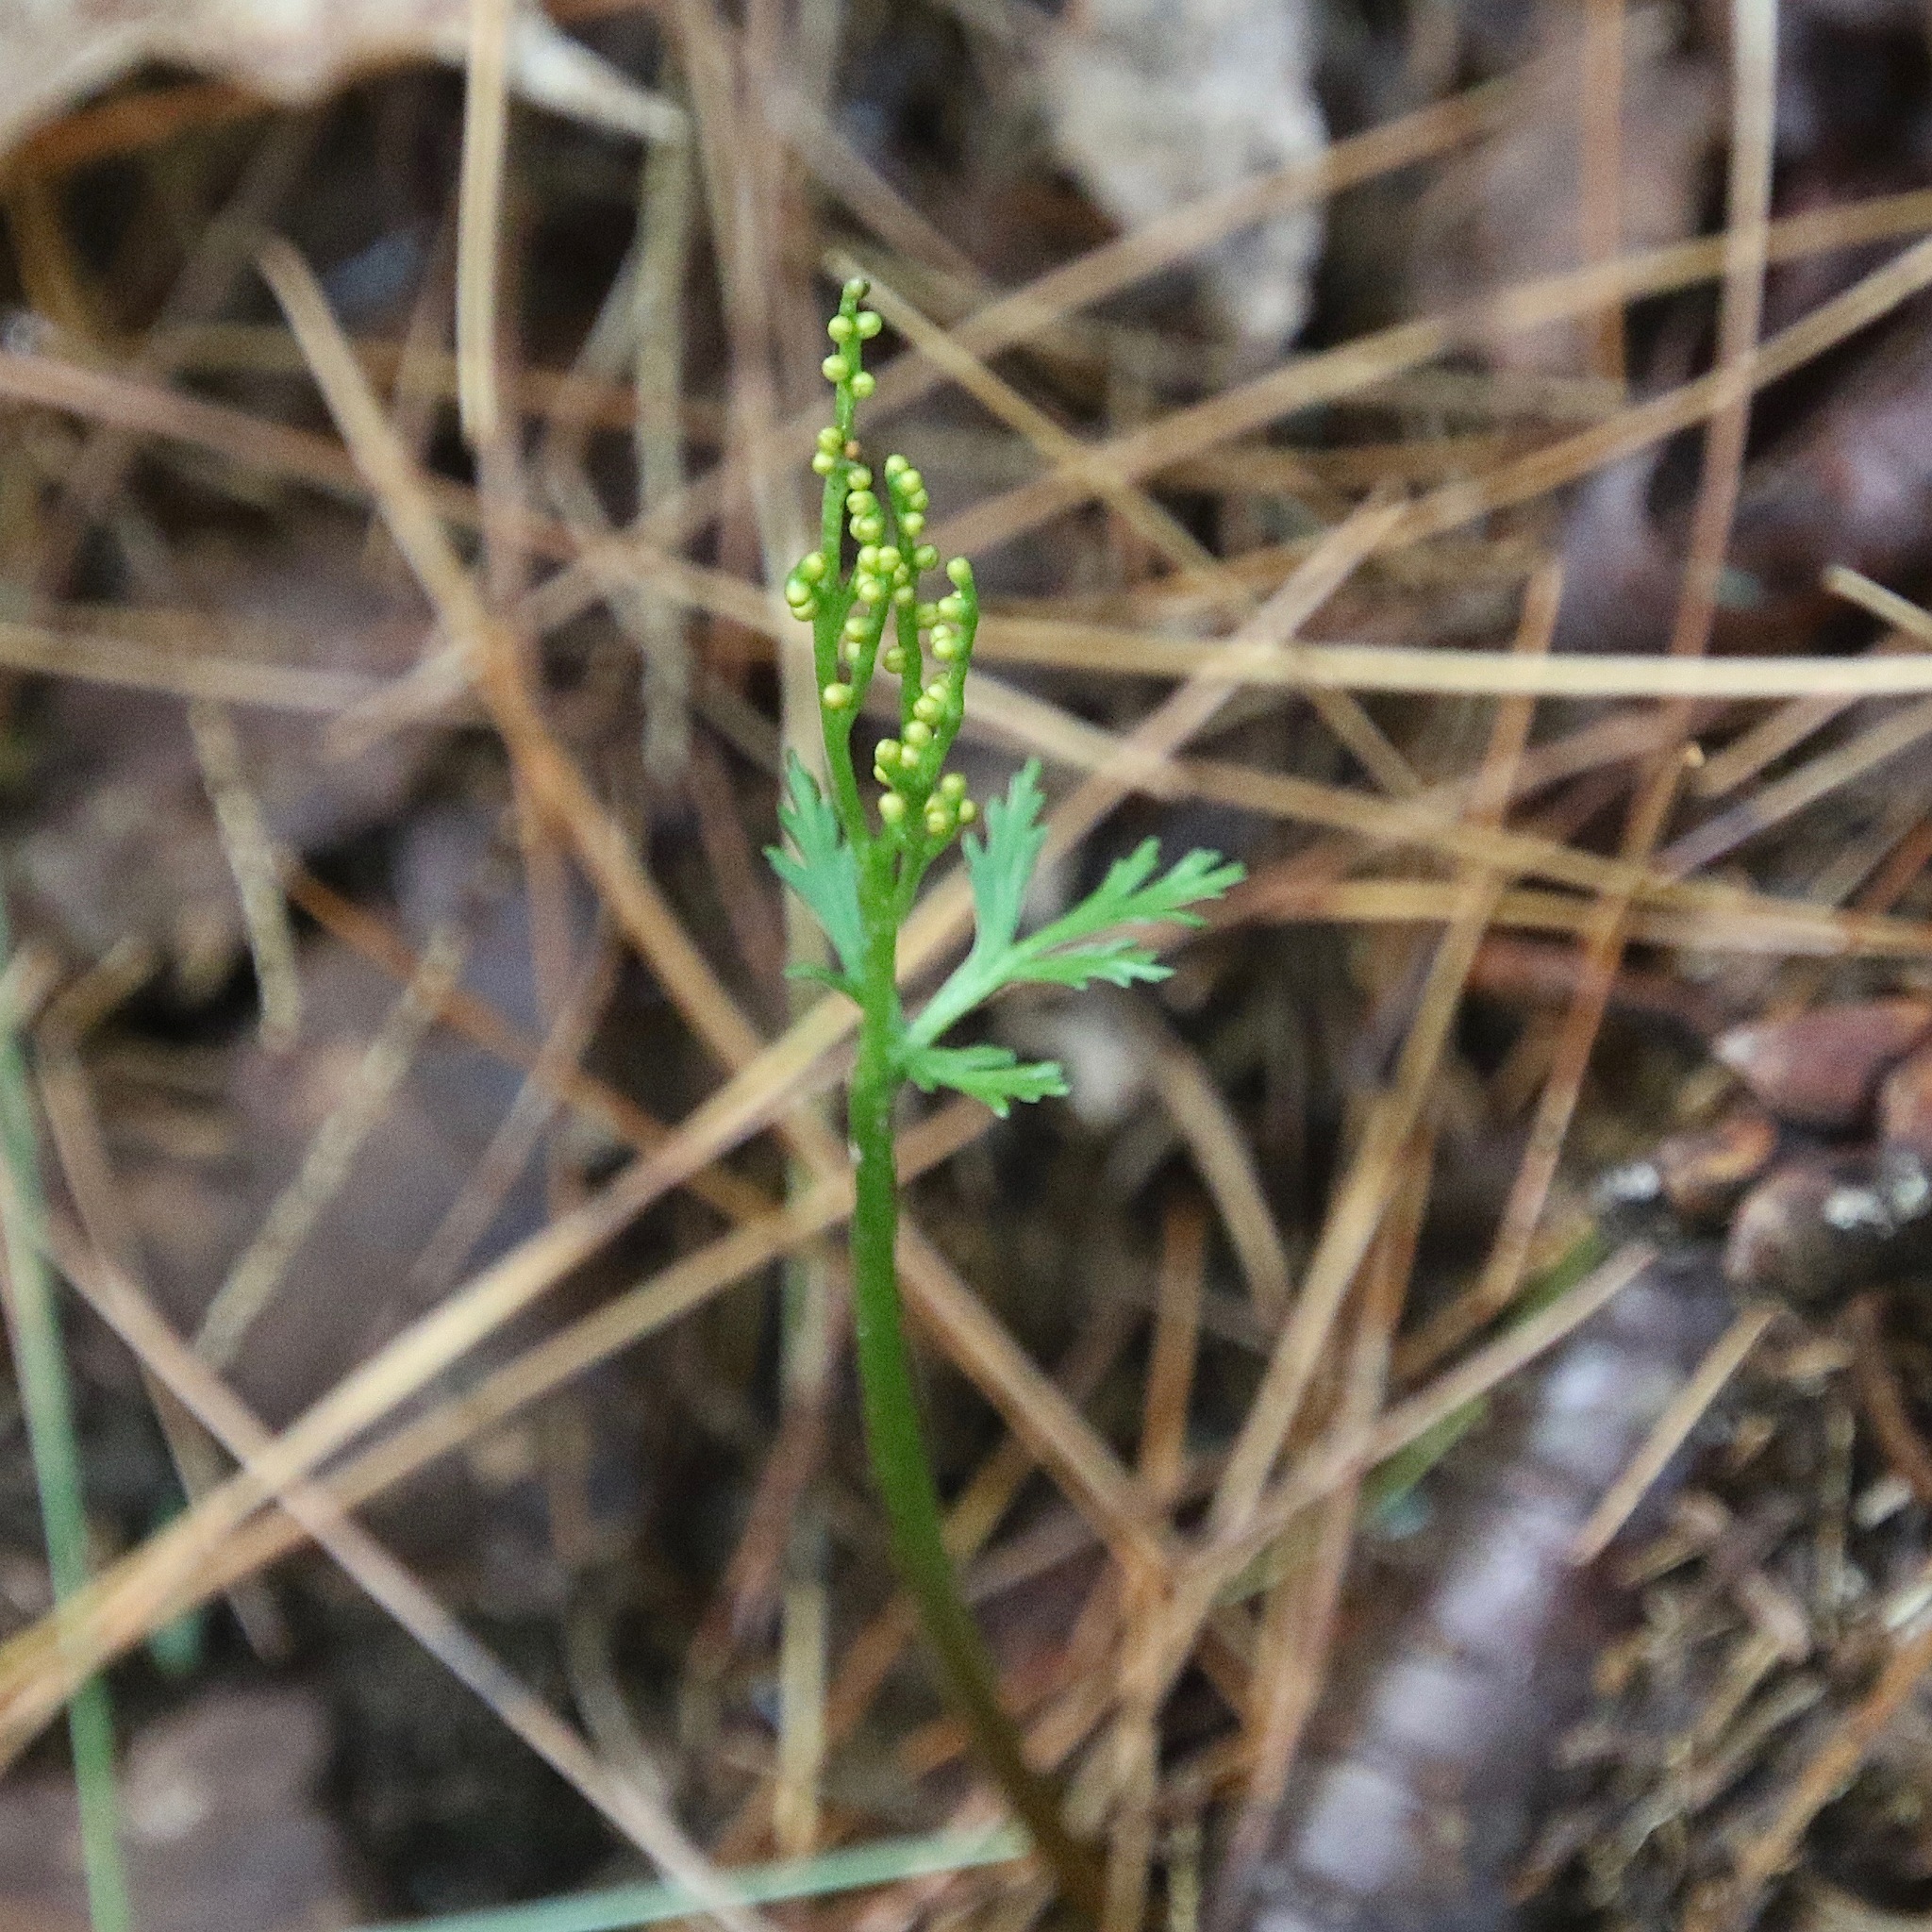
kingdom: Plantae
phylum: Tracheophyta
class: Polypodiopsida
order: Ophioglossales
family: Ophioglossaceae
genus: Botrychium
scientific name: Botrychium angustisegmentum
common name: Narrow triangle moonwort
